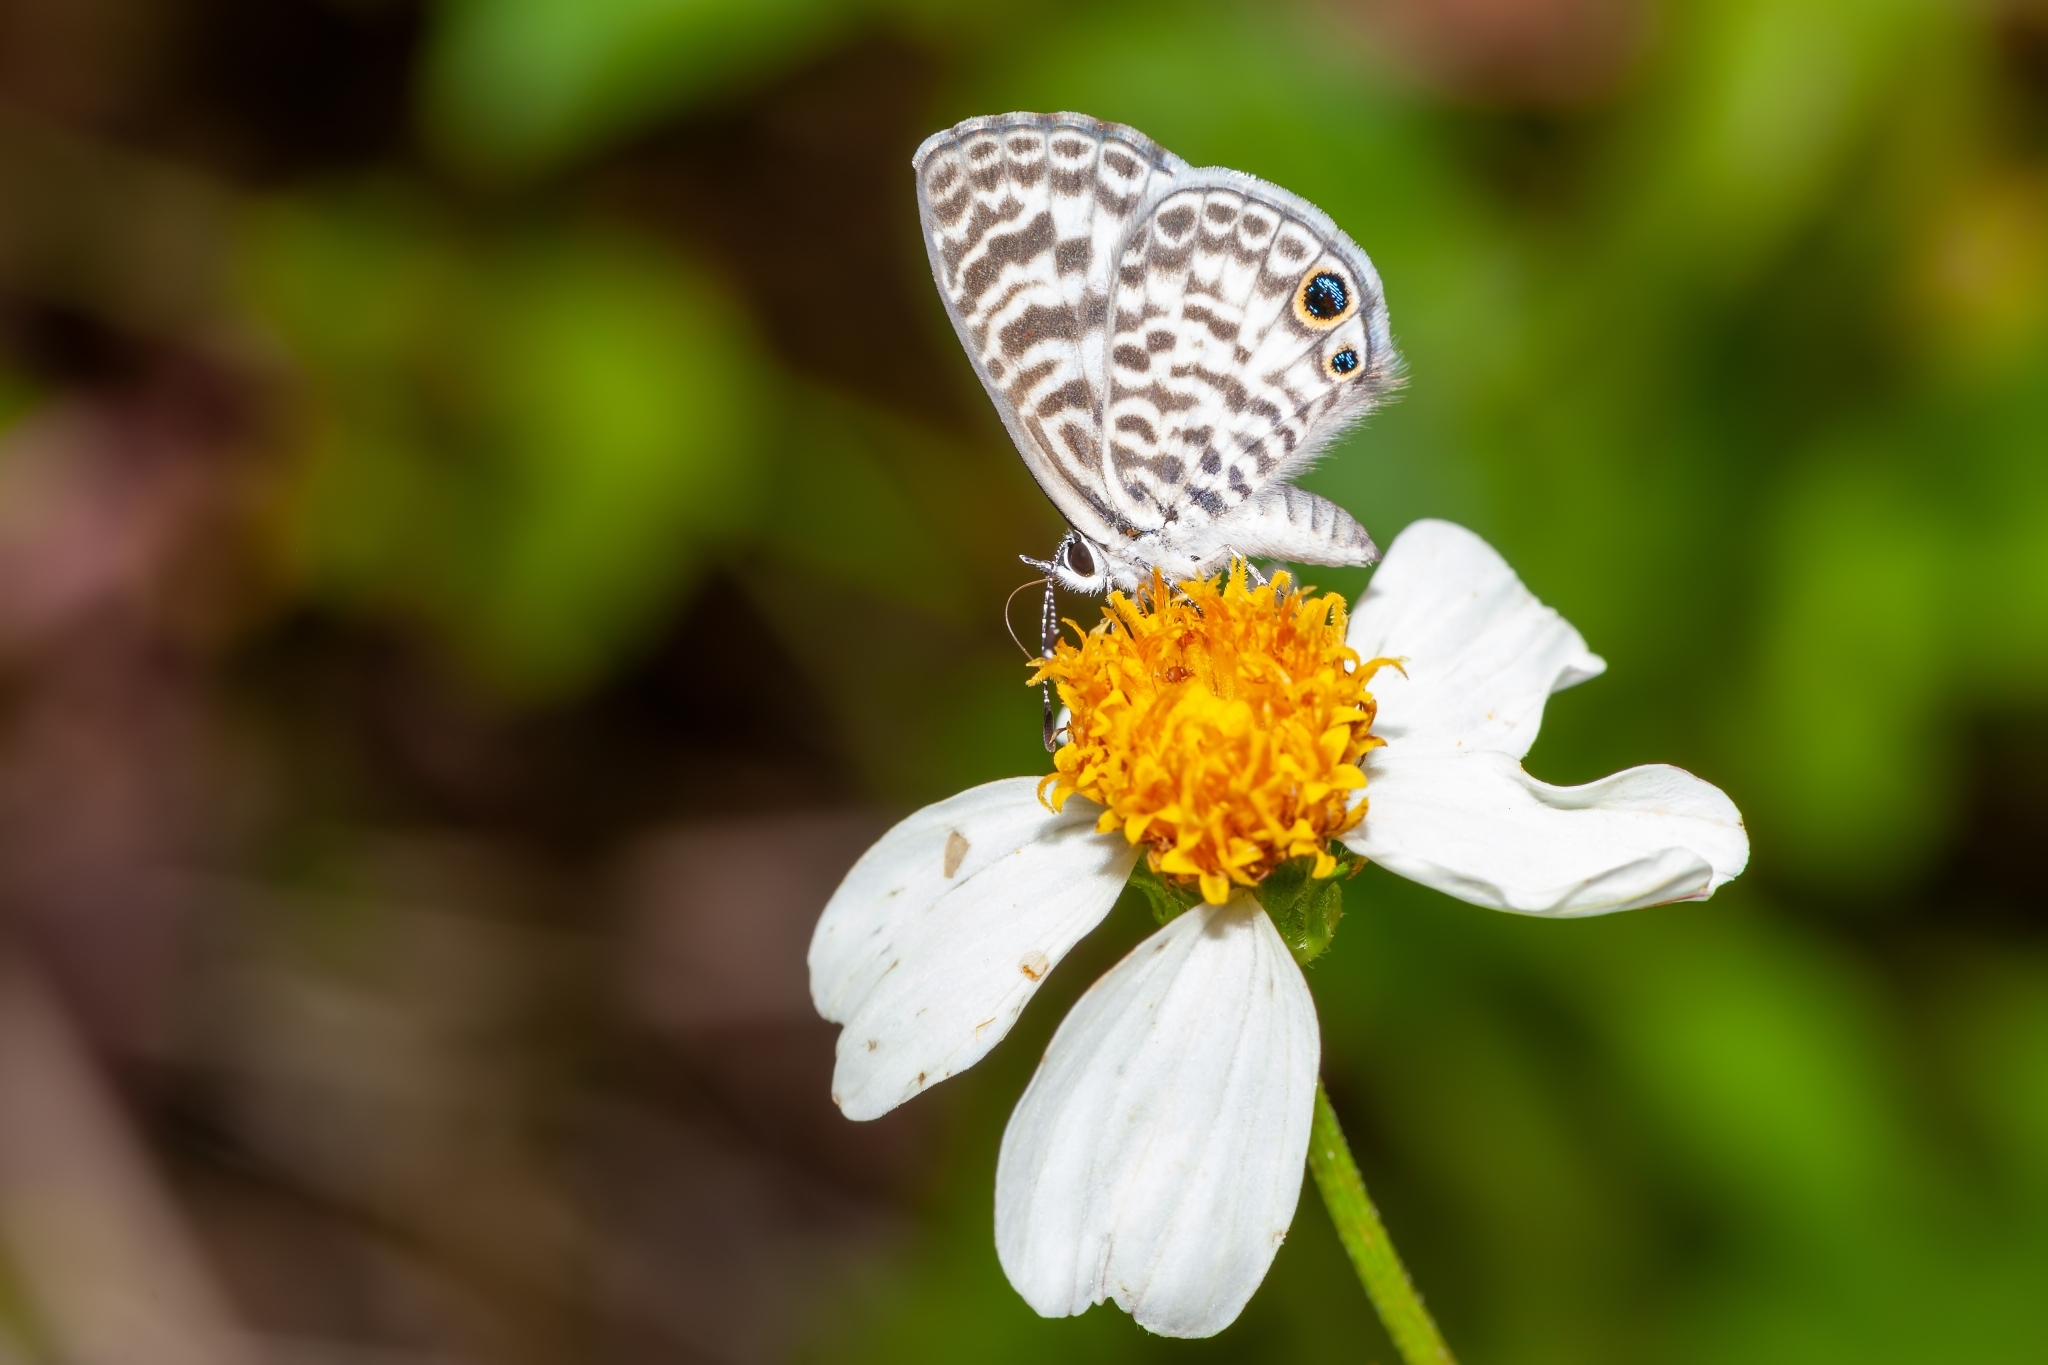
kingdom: Animalia
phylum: Arthropoda
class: Insecta
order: Lepidoptera
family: Lycaenidae
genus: Leptotes
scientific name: Leptotes cassius
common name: Cassius blue
